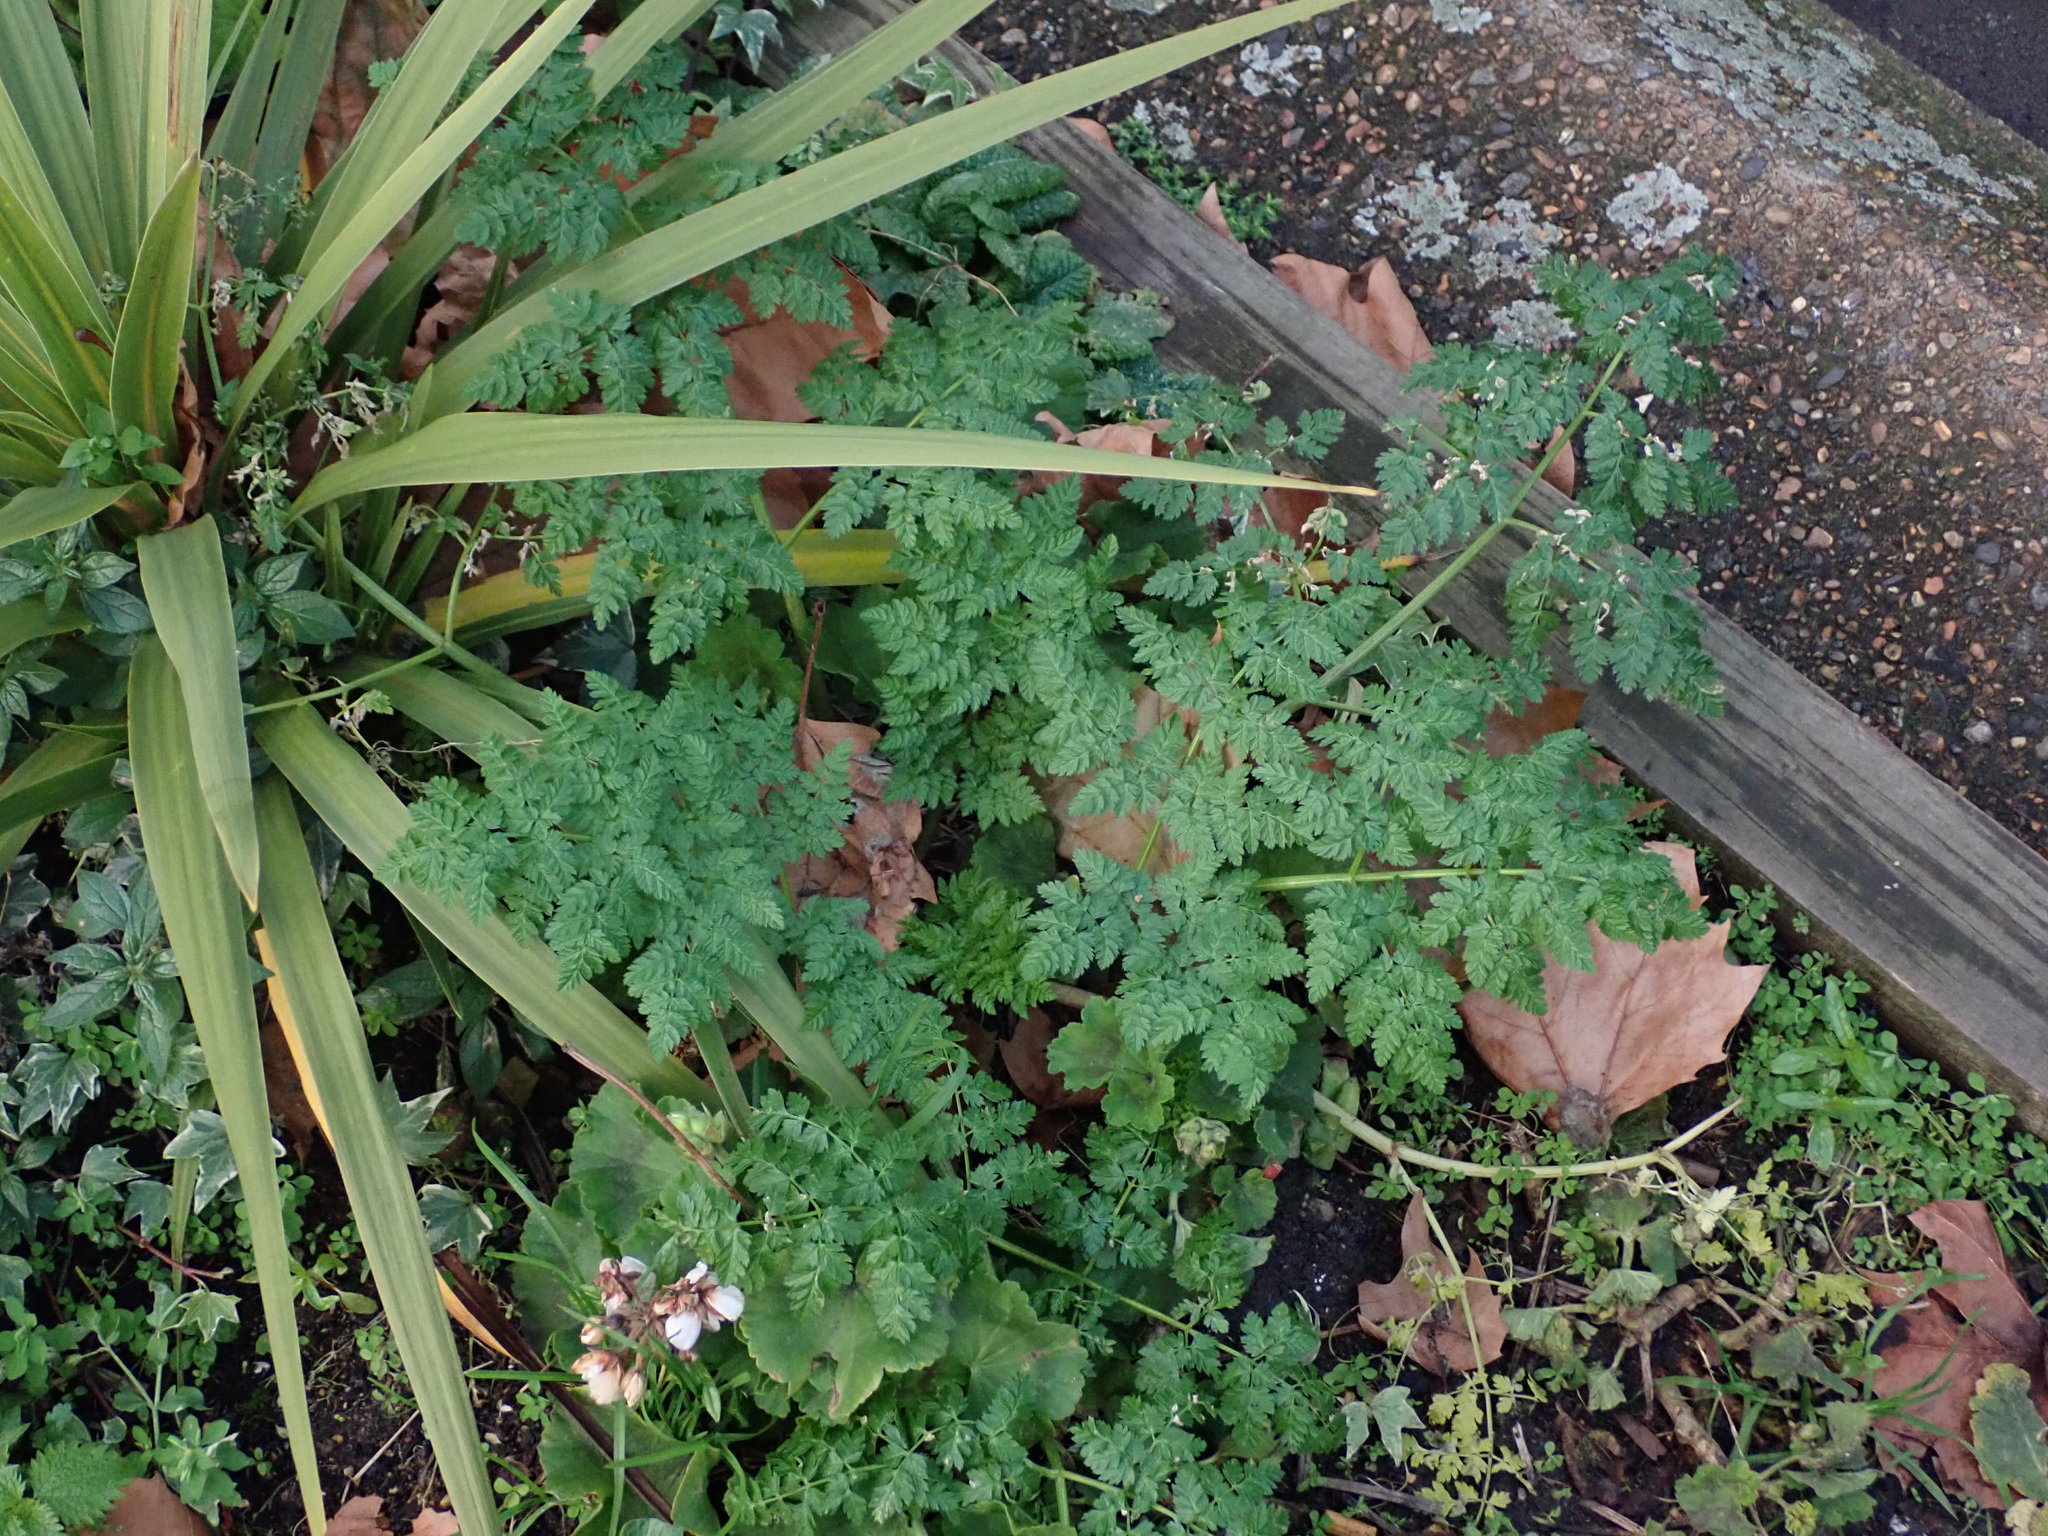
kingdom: Plantae
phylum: Tracheophyta
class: Magnoliopsida
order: Apiales
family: Apiaceae
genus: Conium
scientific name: Conium maculatum
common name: Hemlock
